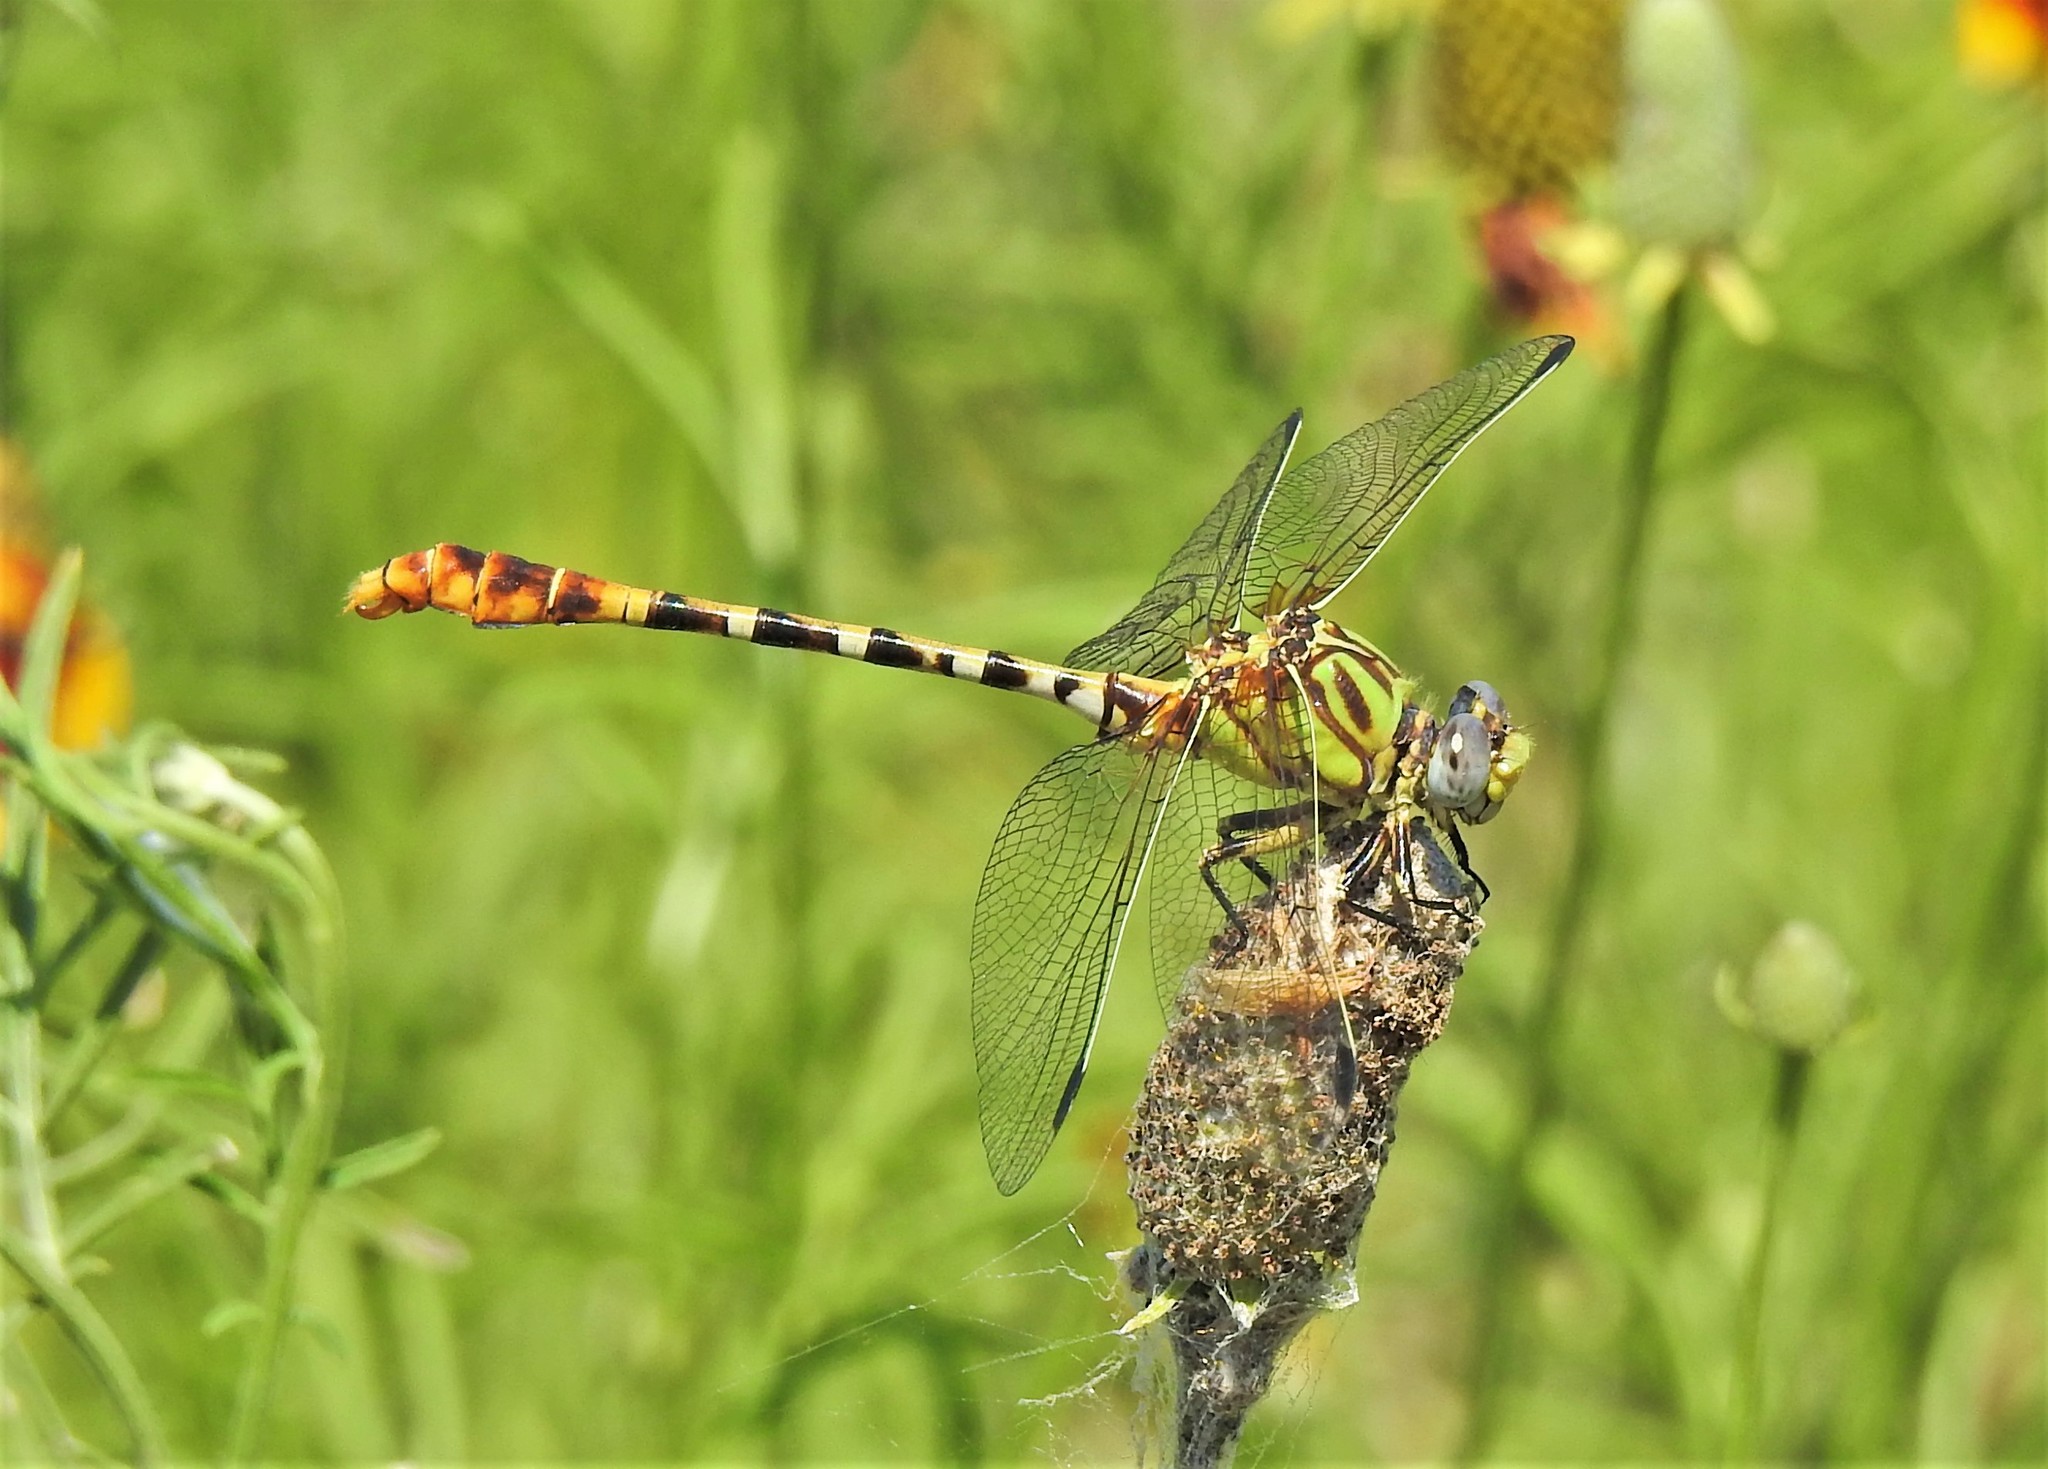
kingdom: Animalia
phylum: Arthropoda
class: Insecta
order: Odonata
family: Gomphidae
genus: Erpetogomphus
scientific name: Erpetogomphus designatus
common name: Eastern ringtail
